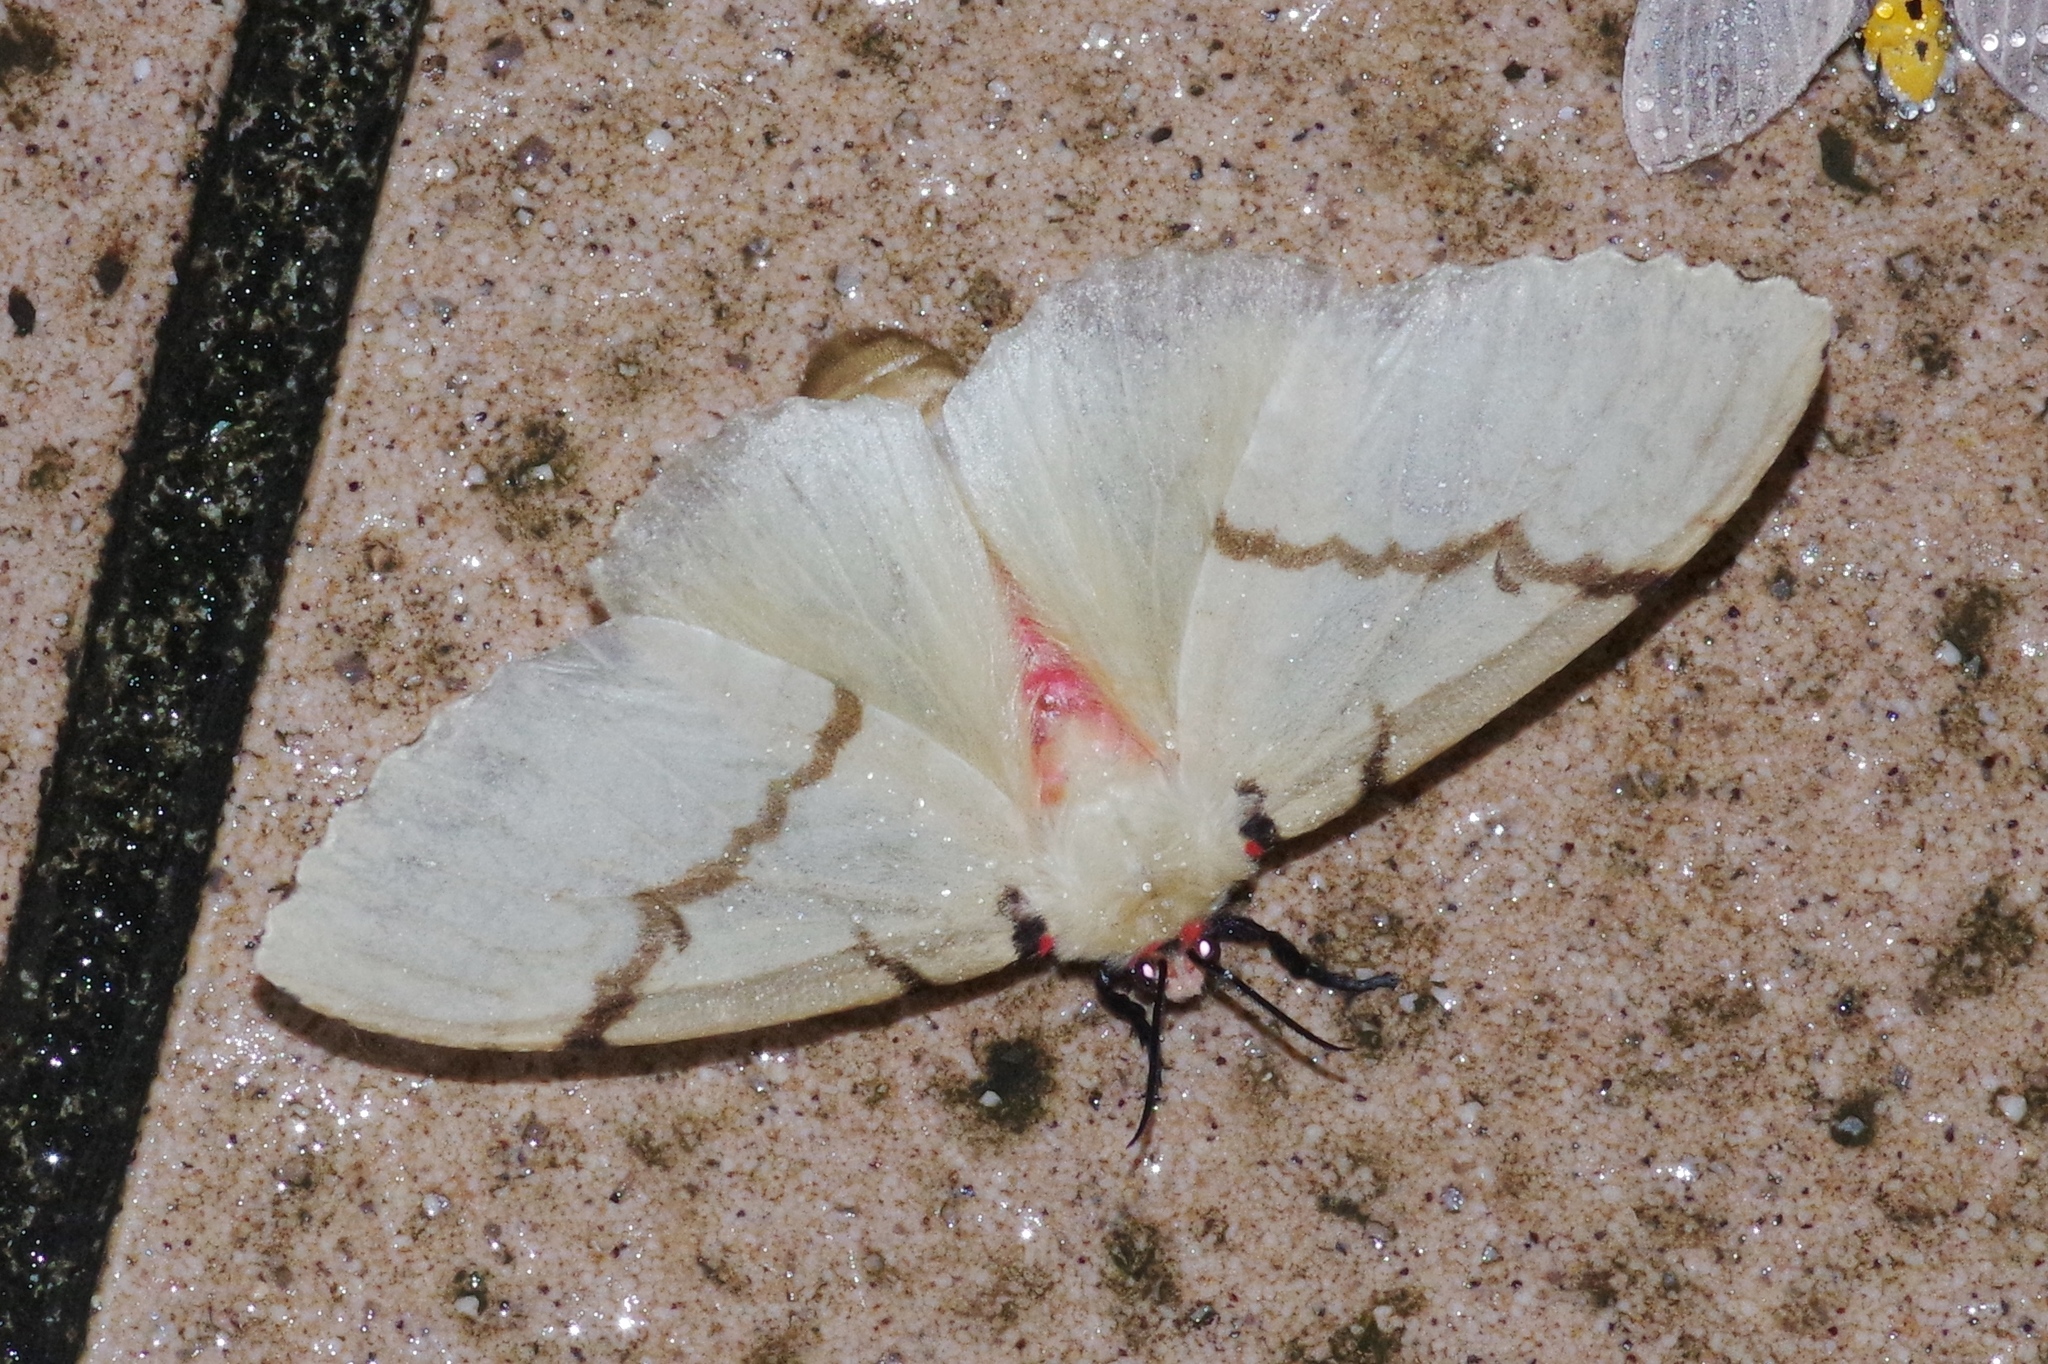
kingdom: Animalia
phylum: Arthropoda
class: Insecta
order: Lepidoptera
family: Erebidae
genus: Lymantria
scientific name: Lymantria xylina
